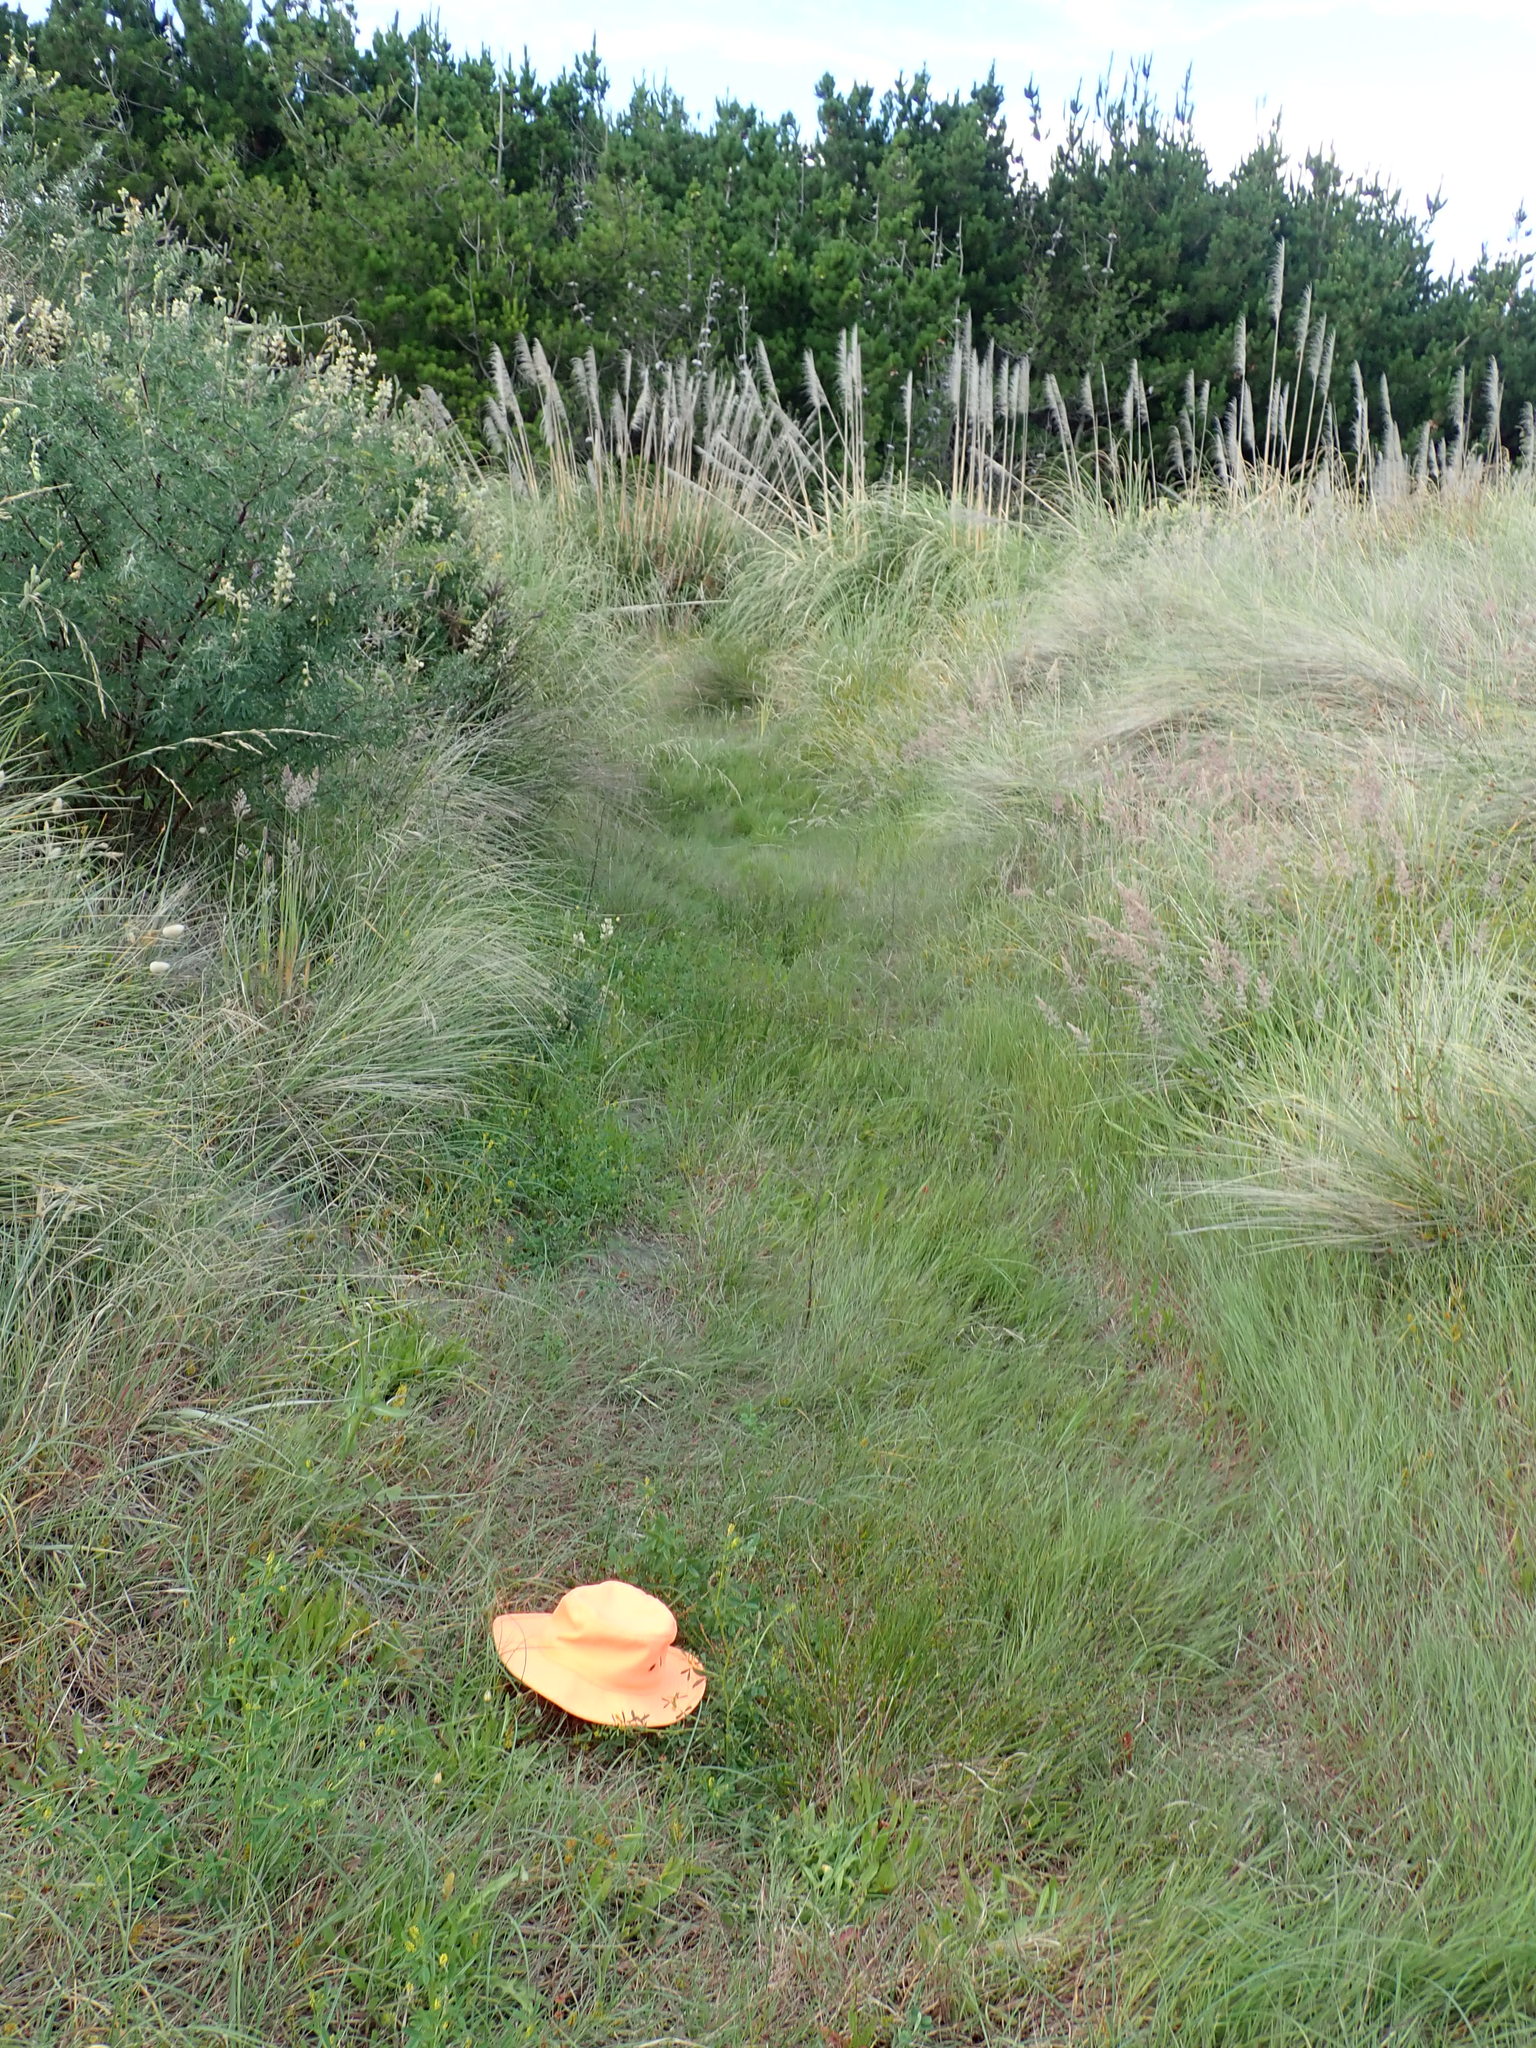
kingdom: Plantae
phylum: Tracheophyta
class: Liliopsida
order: Poales
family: Juncaceae
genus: Juncus
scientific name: Juncus articulatus
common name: Jointed rush
